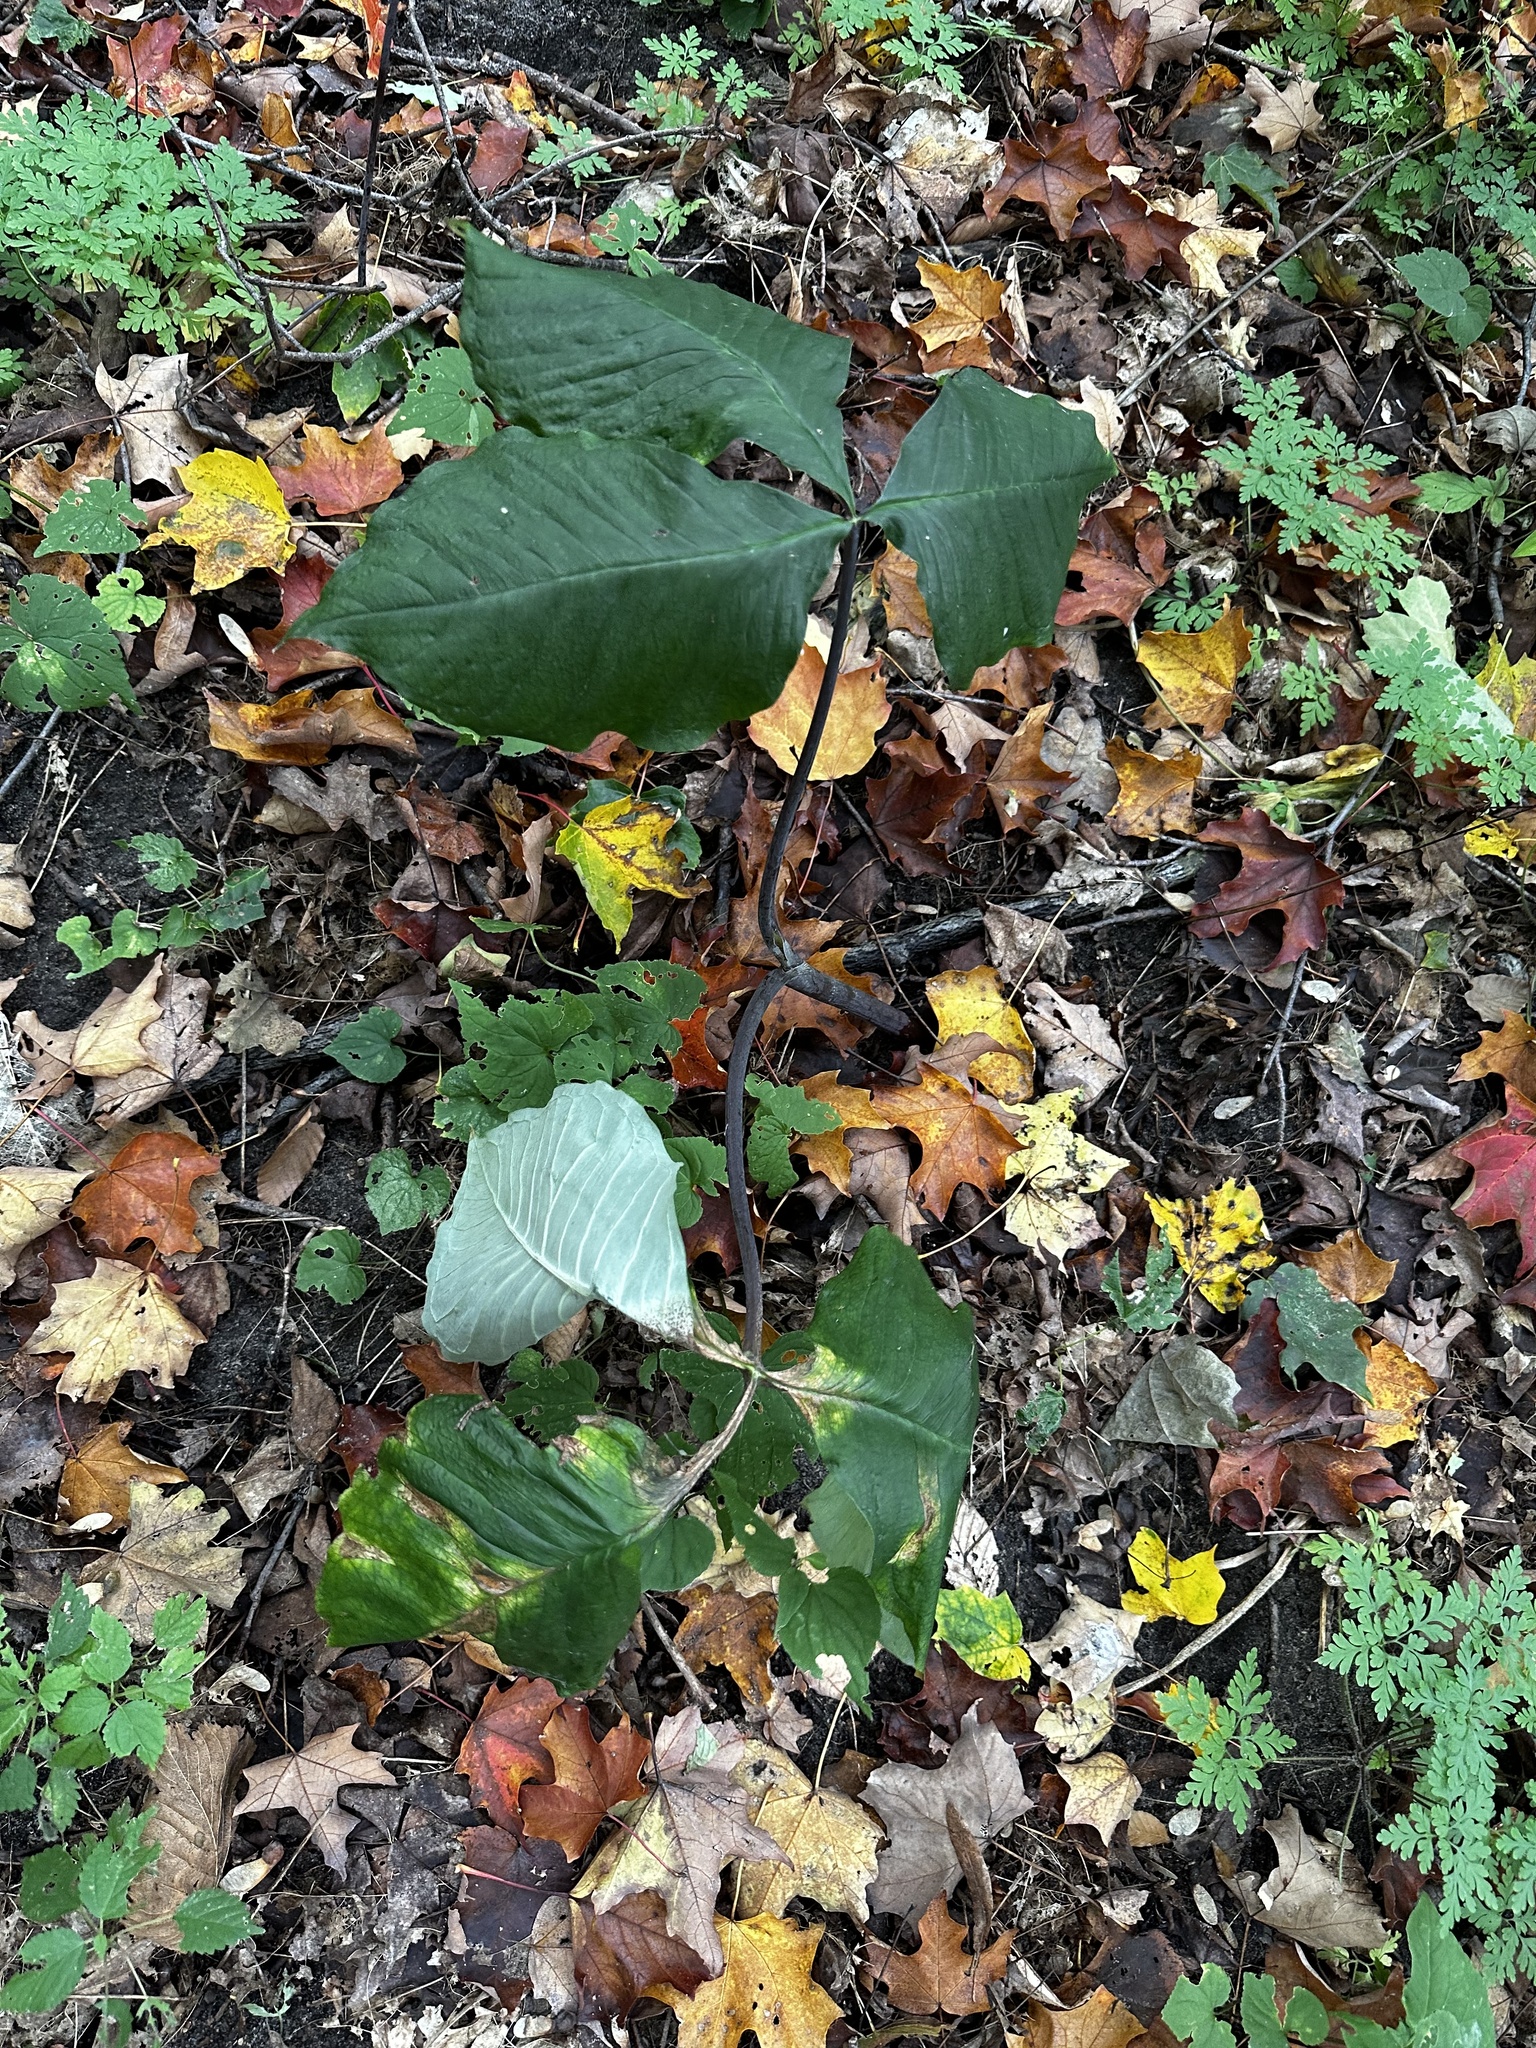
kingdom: Plantae
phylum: Tracheophyta
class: Liliopsida
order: Alismatales
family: Araceae
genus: Arisaema
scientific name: Arisaema triphyllum
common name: Jack-in-the-pulpit
